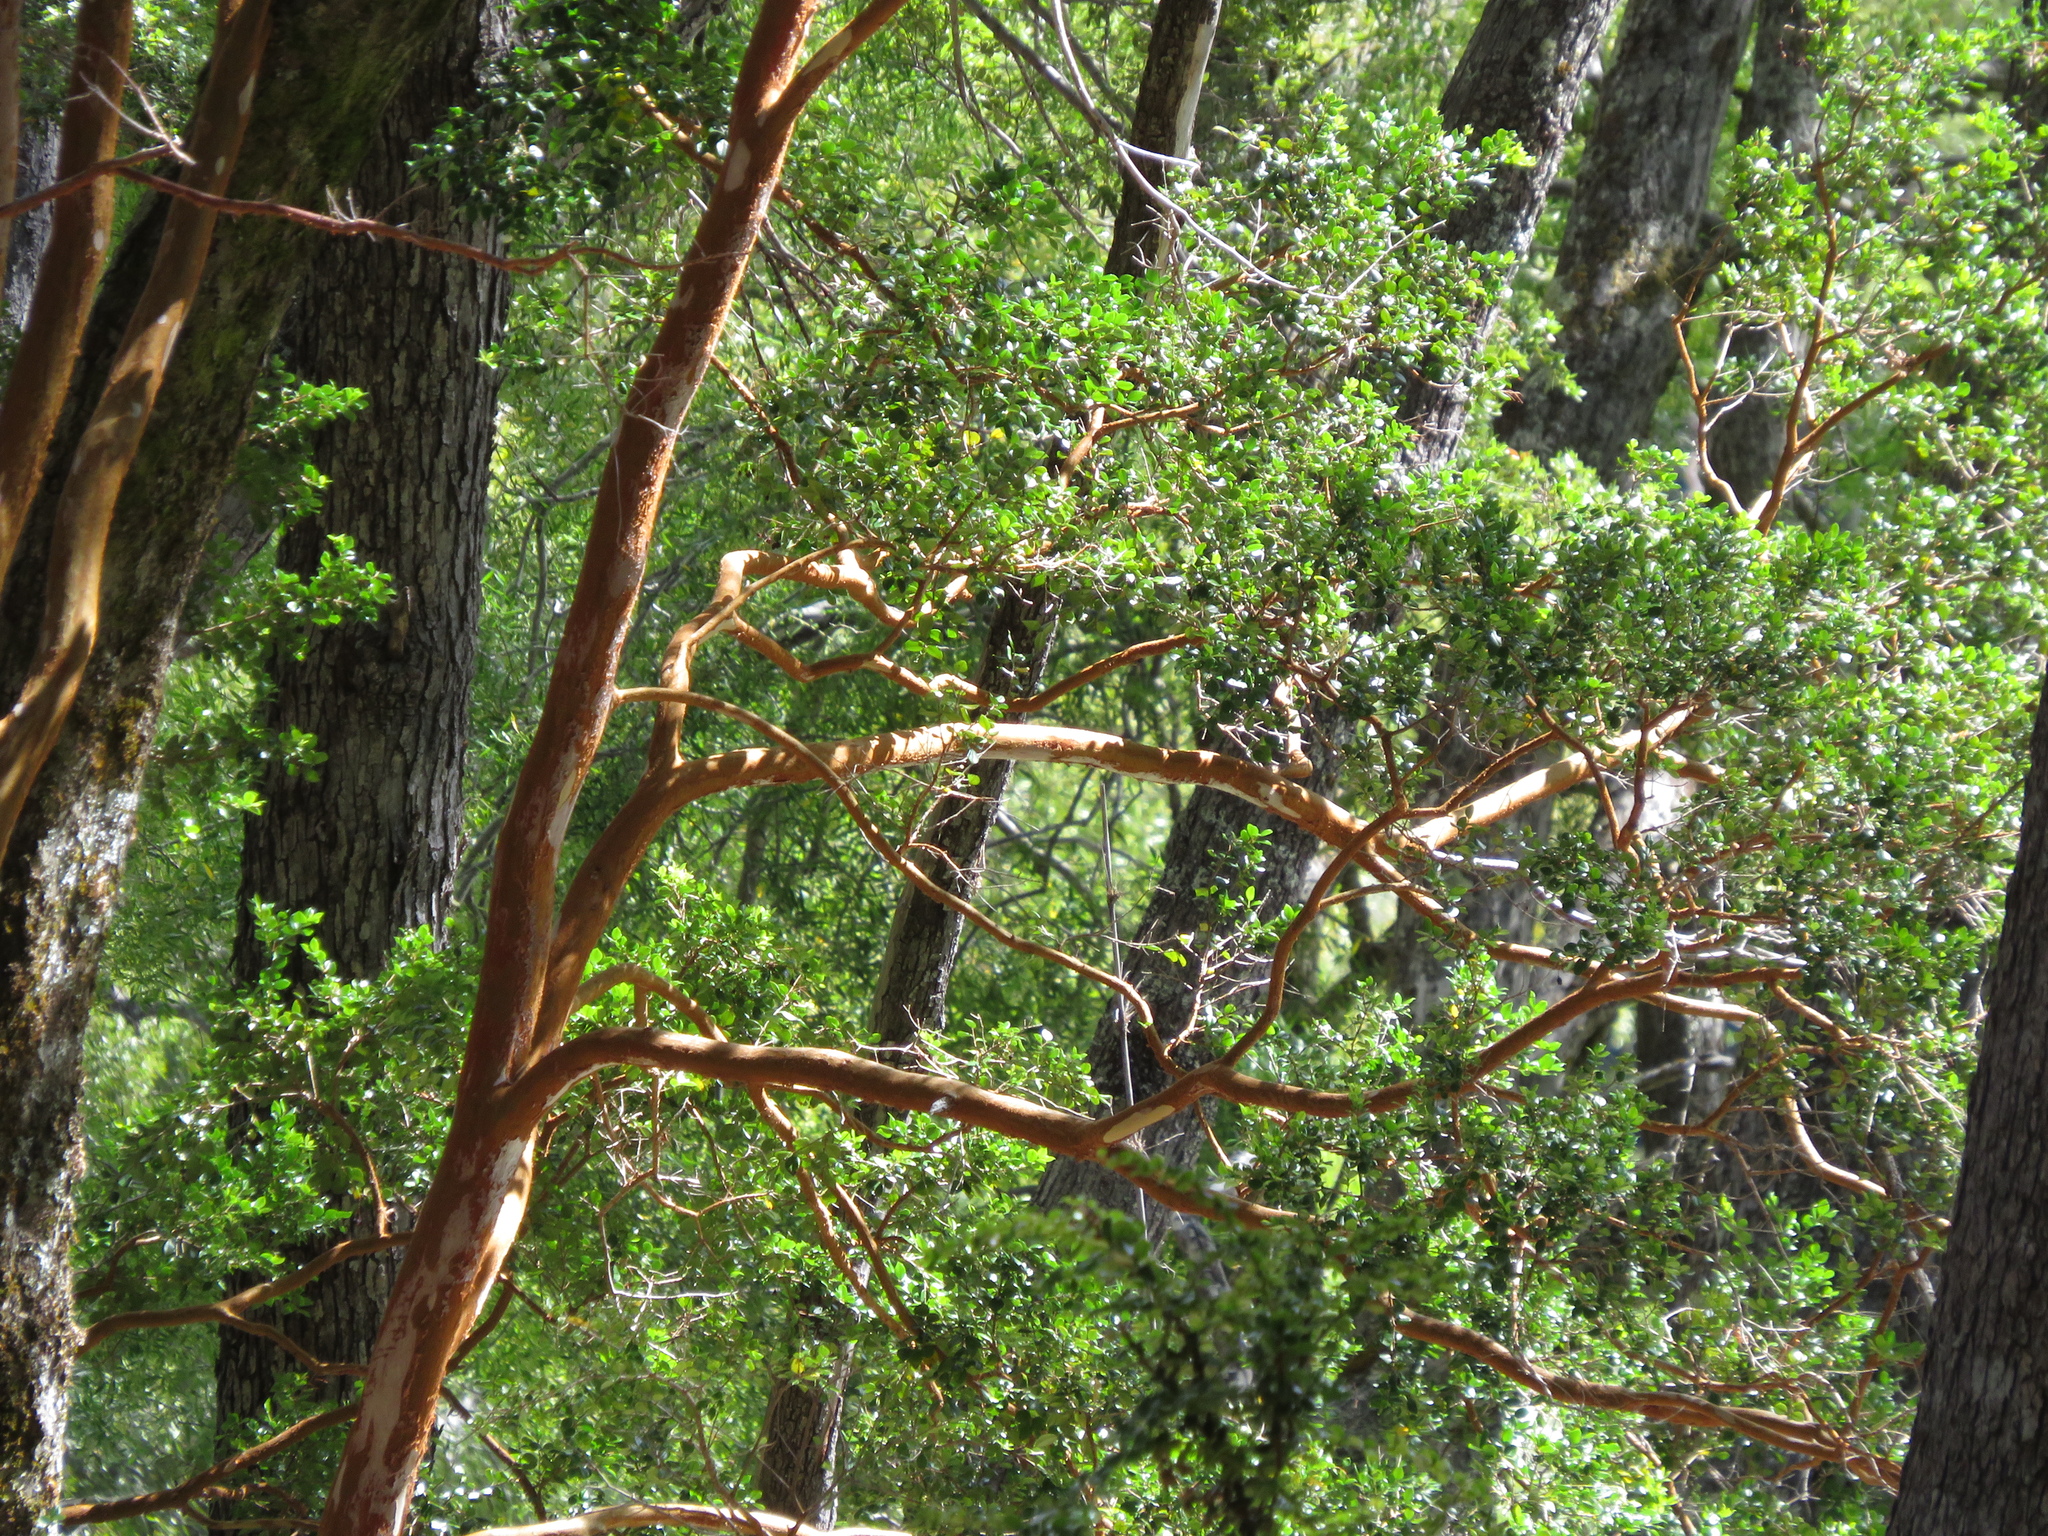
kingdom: Plantae
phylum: Tracheophyta
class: Magnoliopsida
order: Myrtales
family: Myrtaceae
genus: Luma
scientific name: Luma apiculata
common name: Chilean myrtle
